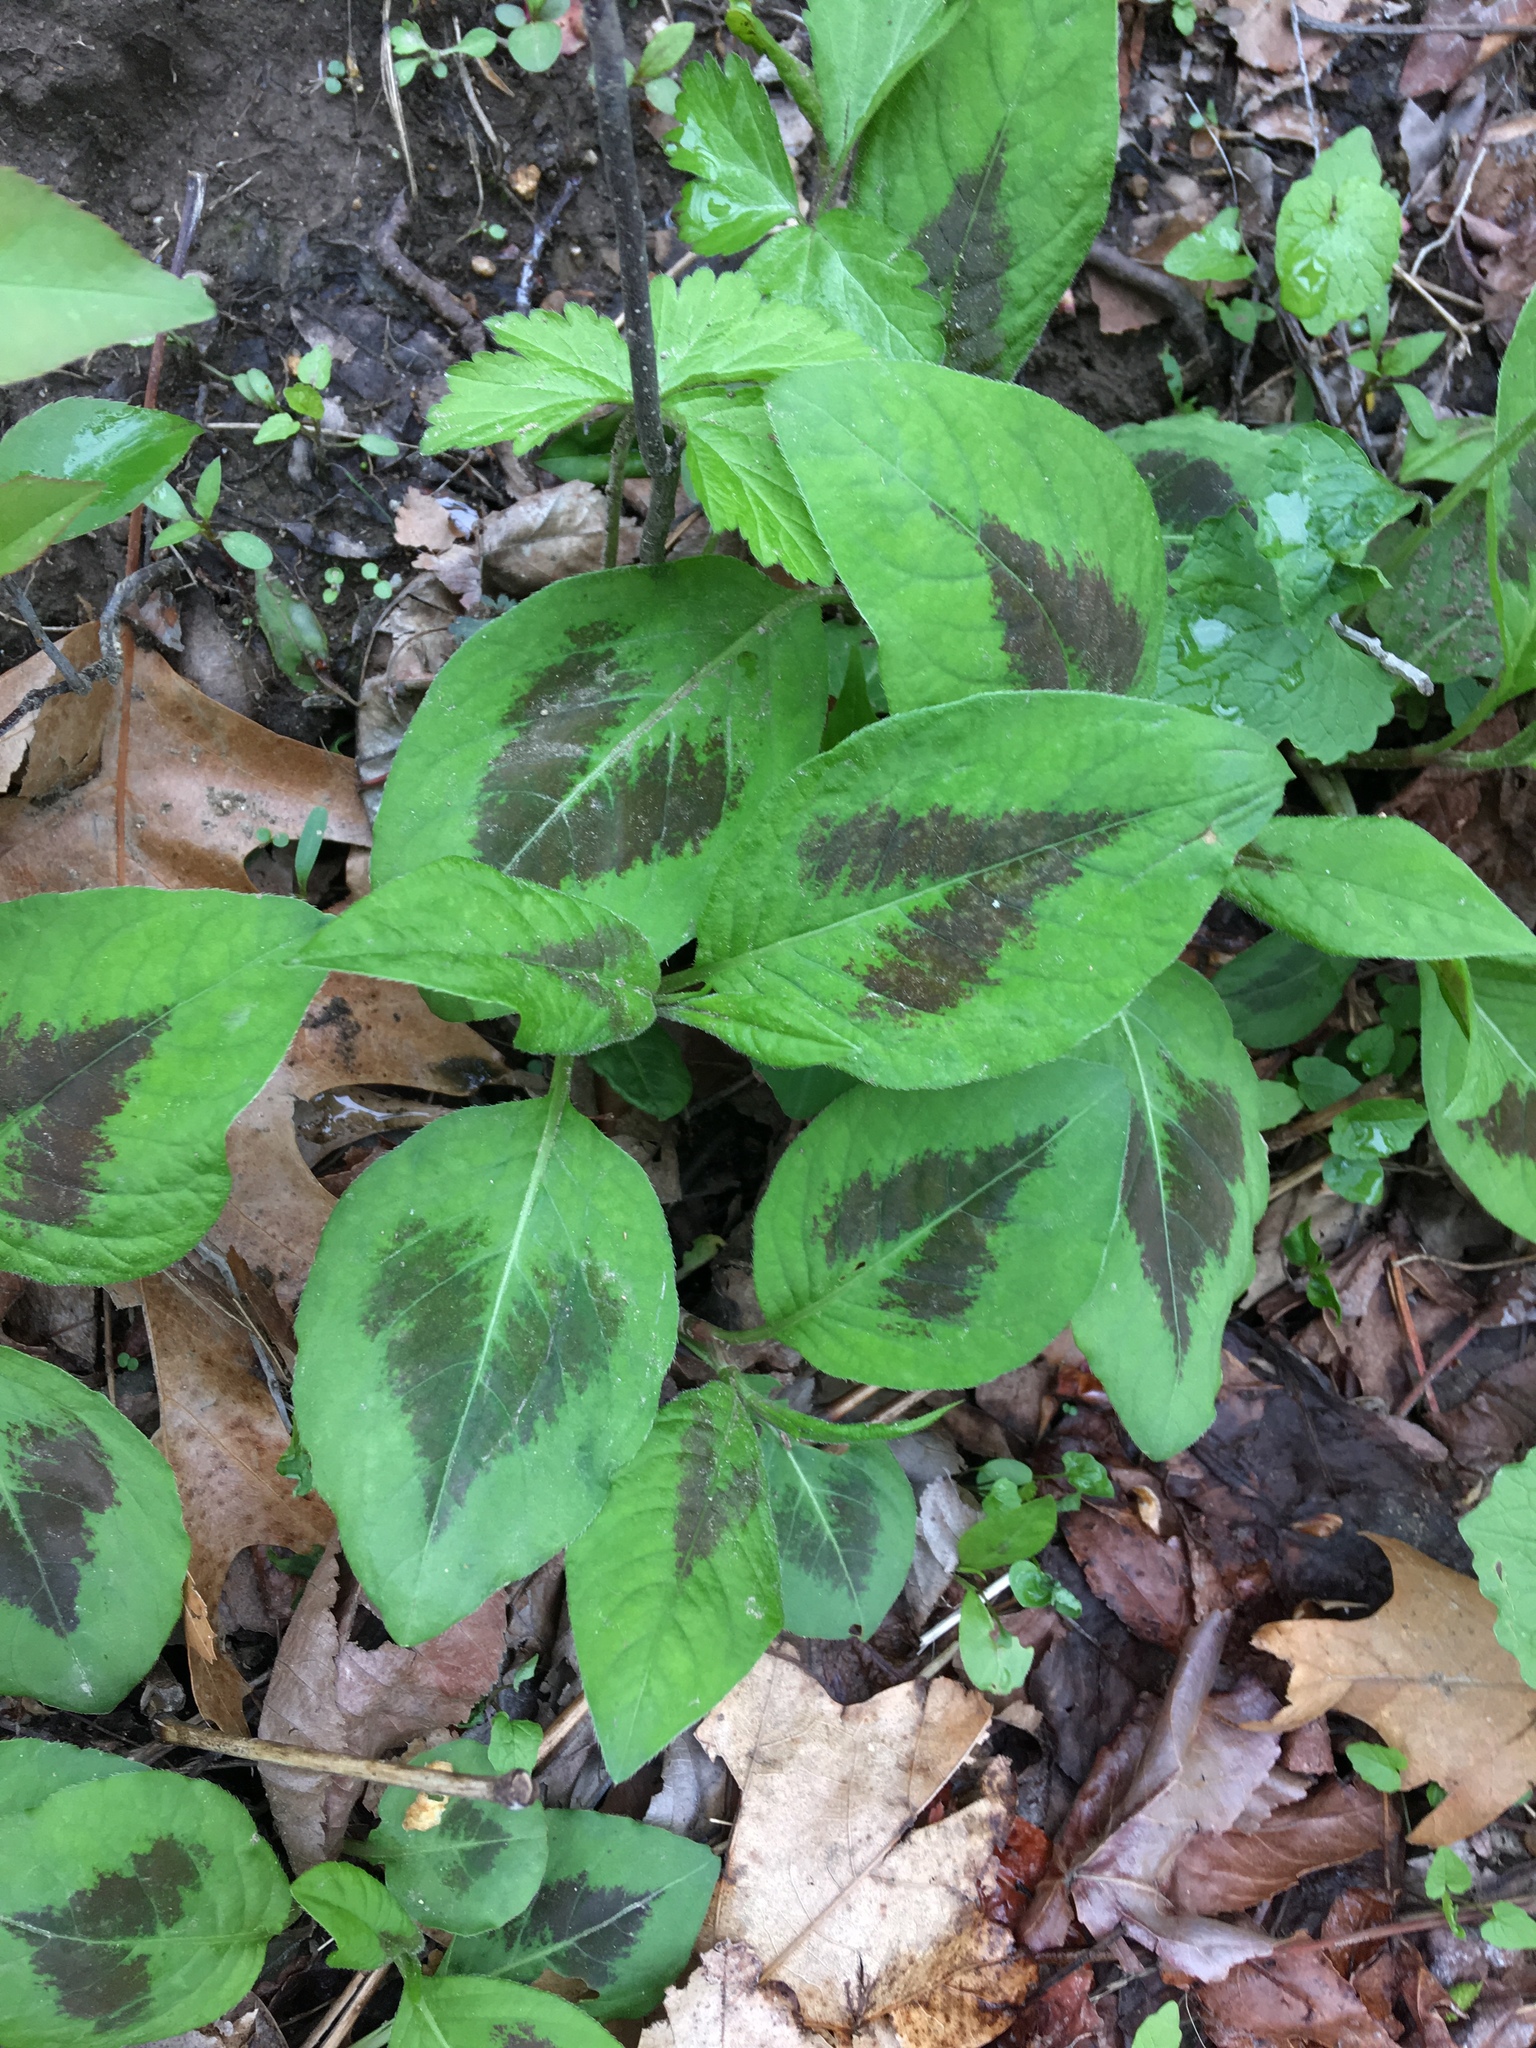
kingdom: Plantae
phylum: Tracheophyta
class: Magnoliopsida
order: Caryophyllales
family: Polygonaceae
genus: Persicaria
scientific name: Persicaria virginiana
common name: Jumpseed
